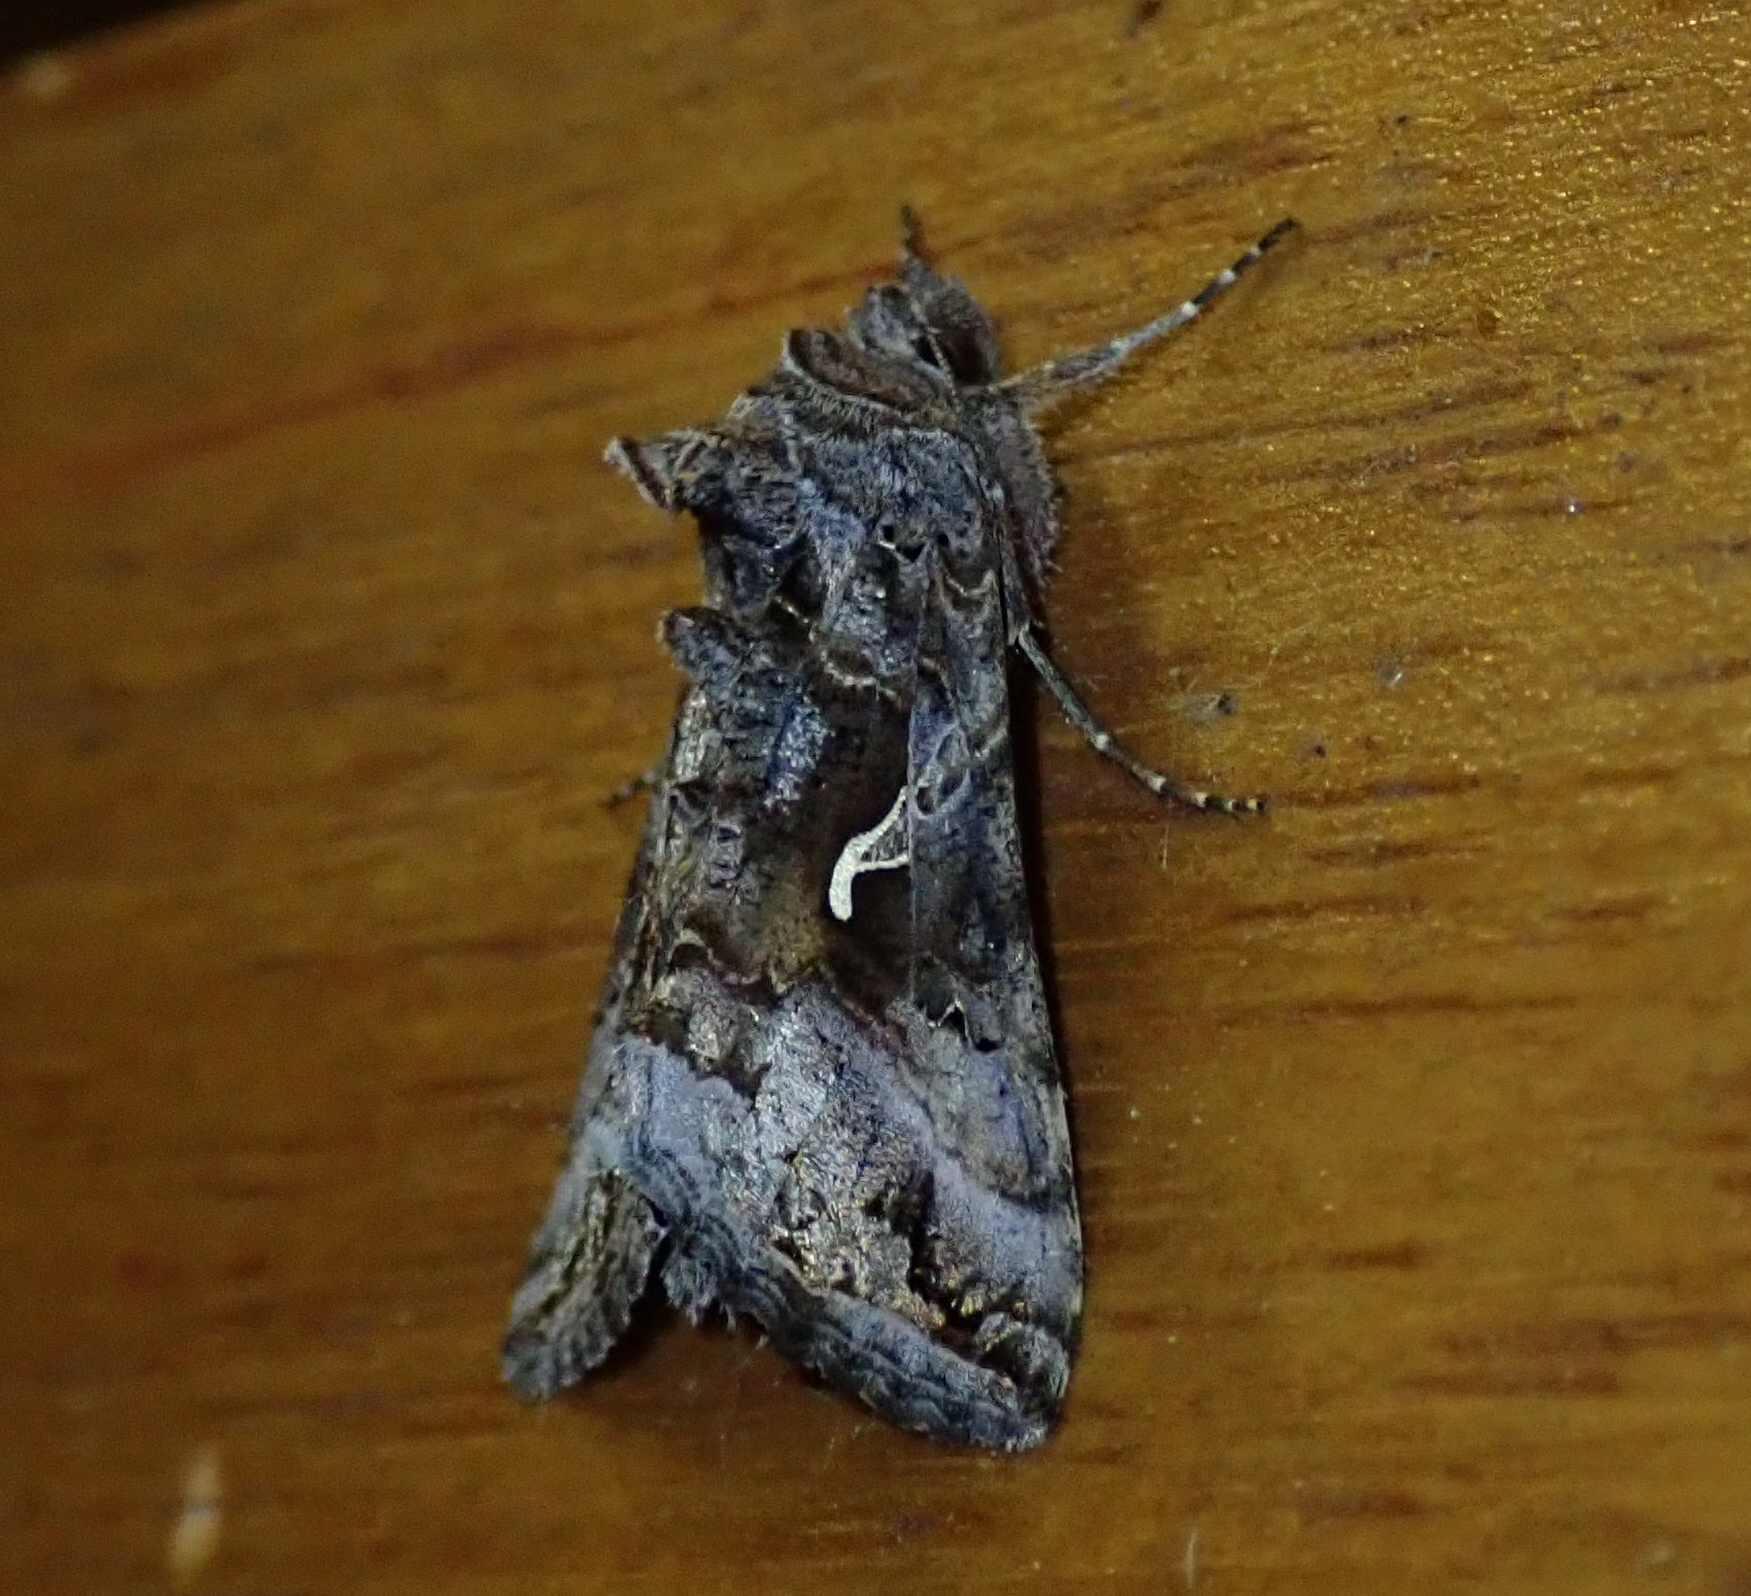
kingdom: Animalia
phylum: Arthropoda
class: Insecta
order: Lepidoptera
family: Noctuidae
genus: Autographa
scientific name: Autographa gamma
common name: Silver y
